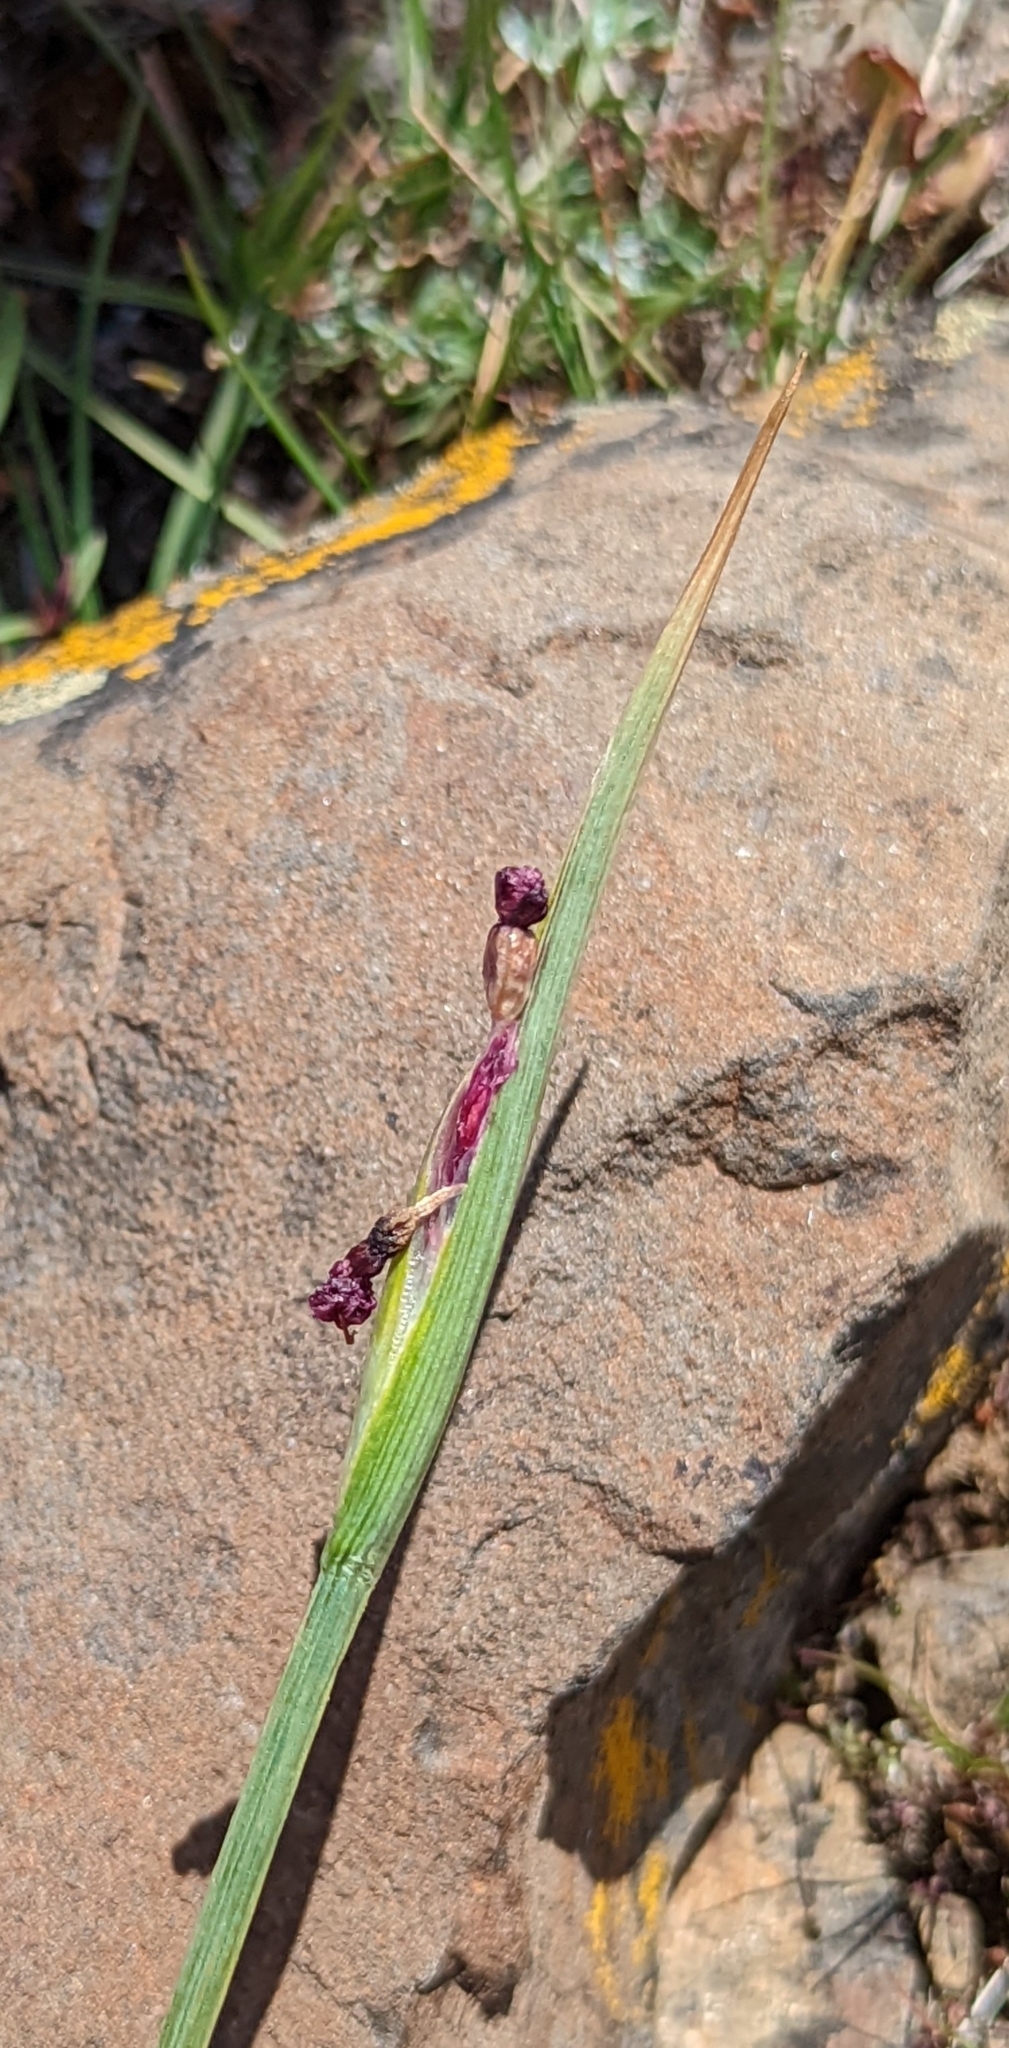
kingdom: Plantae
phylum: Tracheophyta
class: Liliopsida
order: Asparagales
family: Iridaceae
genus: Olsynium
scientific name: Olsynium douglasii
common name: Douglas' grasswidow
